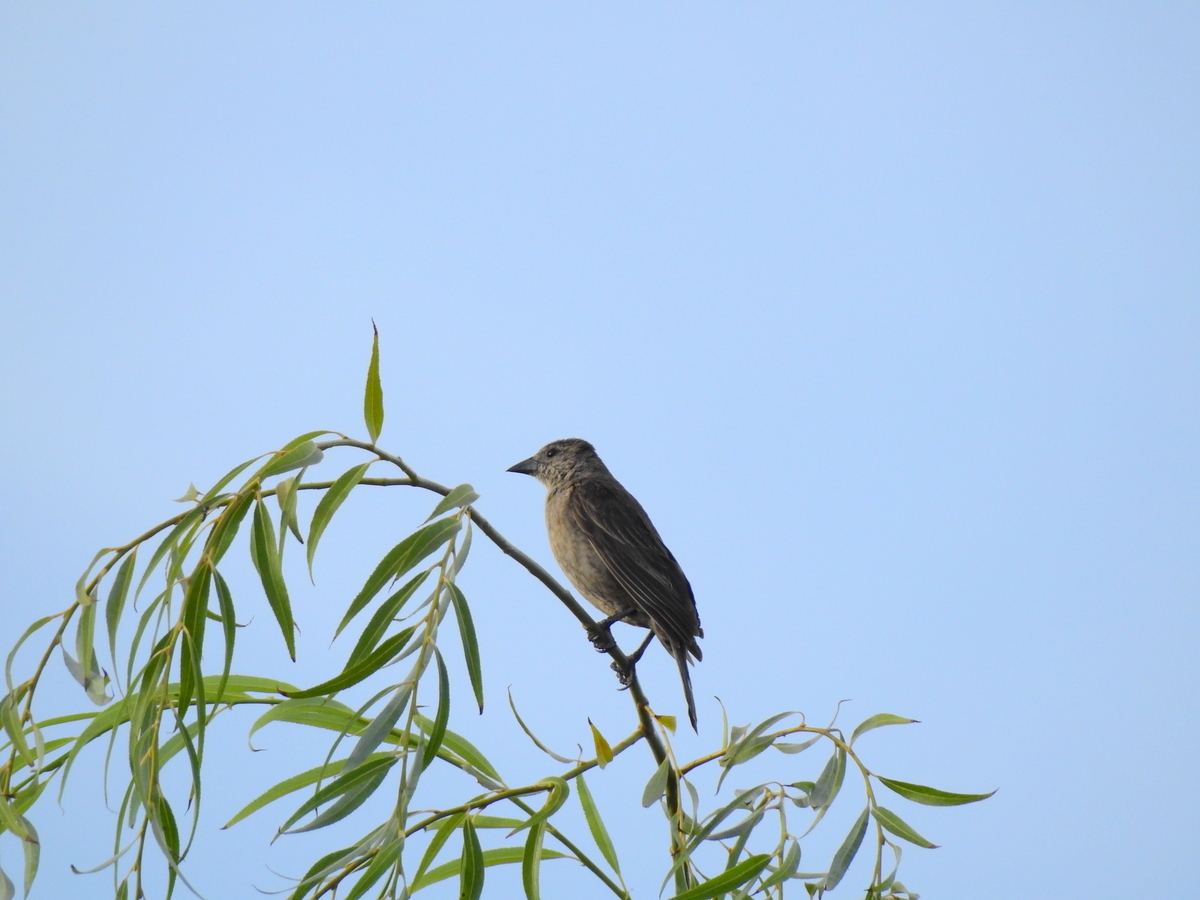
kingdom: Animalia
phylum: Chordata
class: Aves
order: Passeriformes
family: Icteridae
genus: Molothrus
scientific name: Molothrus bonariensis
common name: Shiny cowbird
